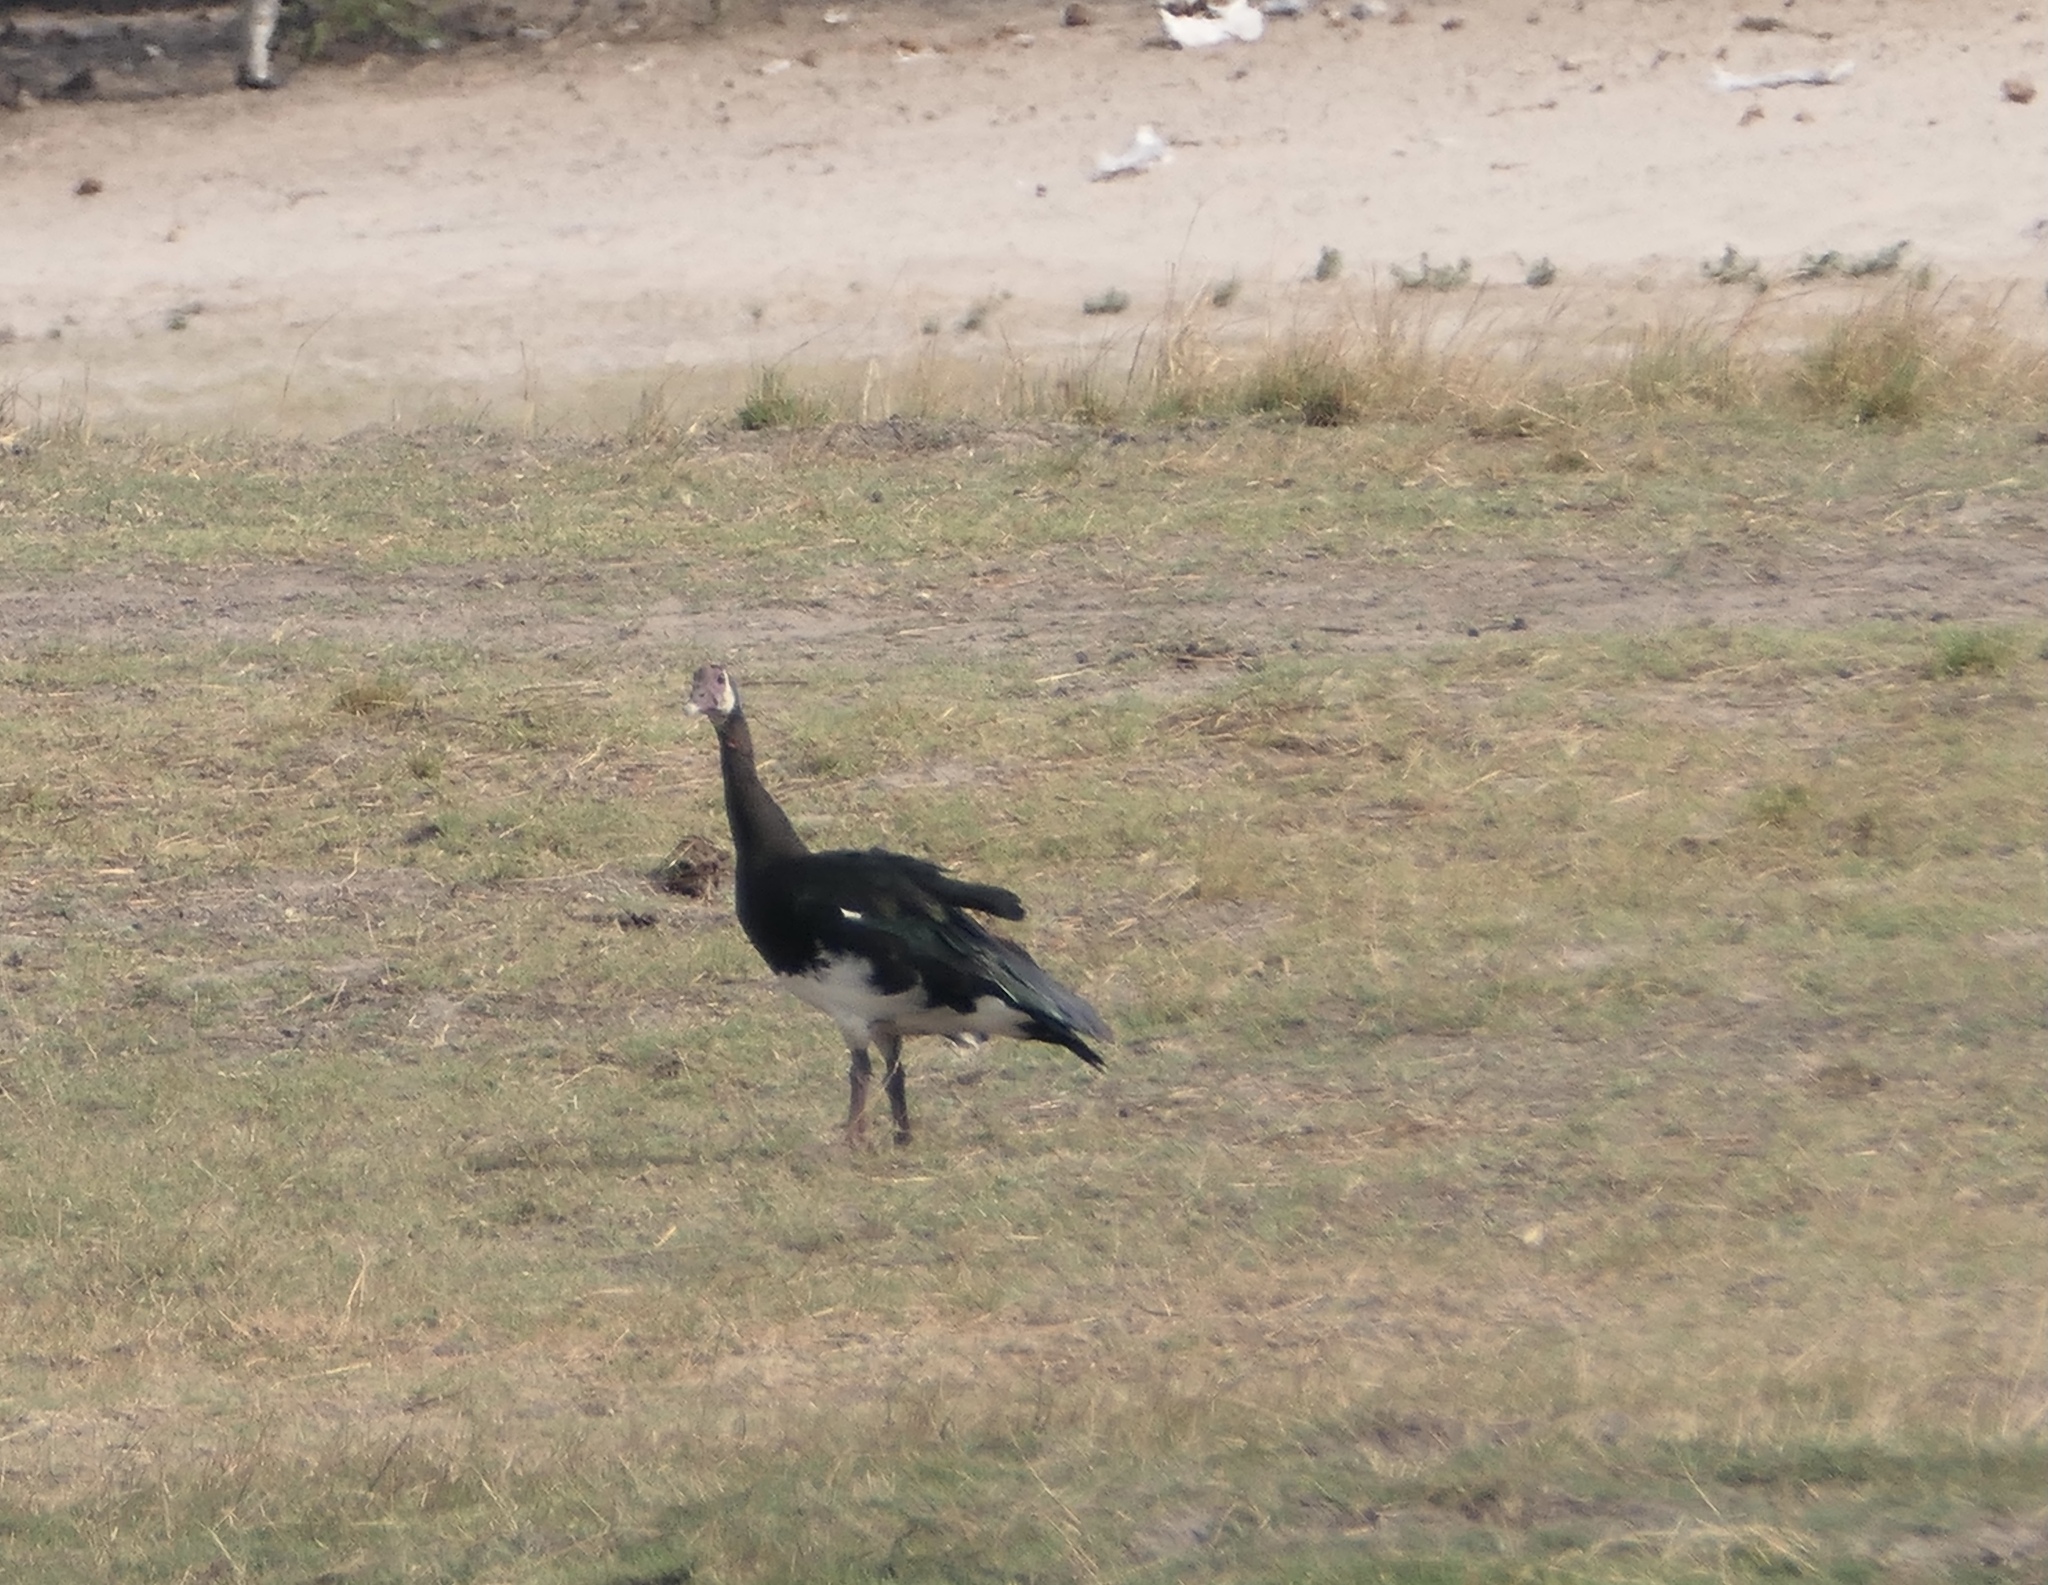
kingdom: Animalia
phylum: Chordata
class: Aves
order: Anseriformes
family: Anatidae
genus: Plectropterus
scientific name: Plectropterus gambensis
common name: Spur-winged goose
